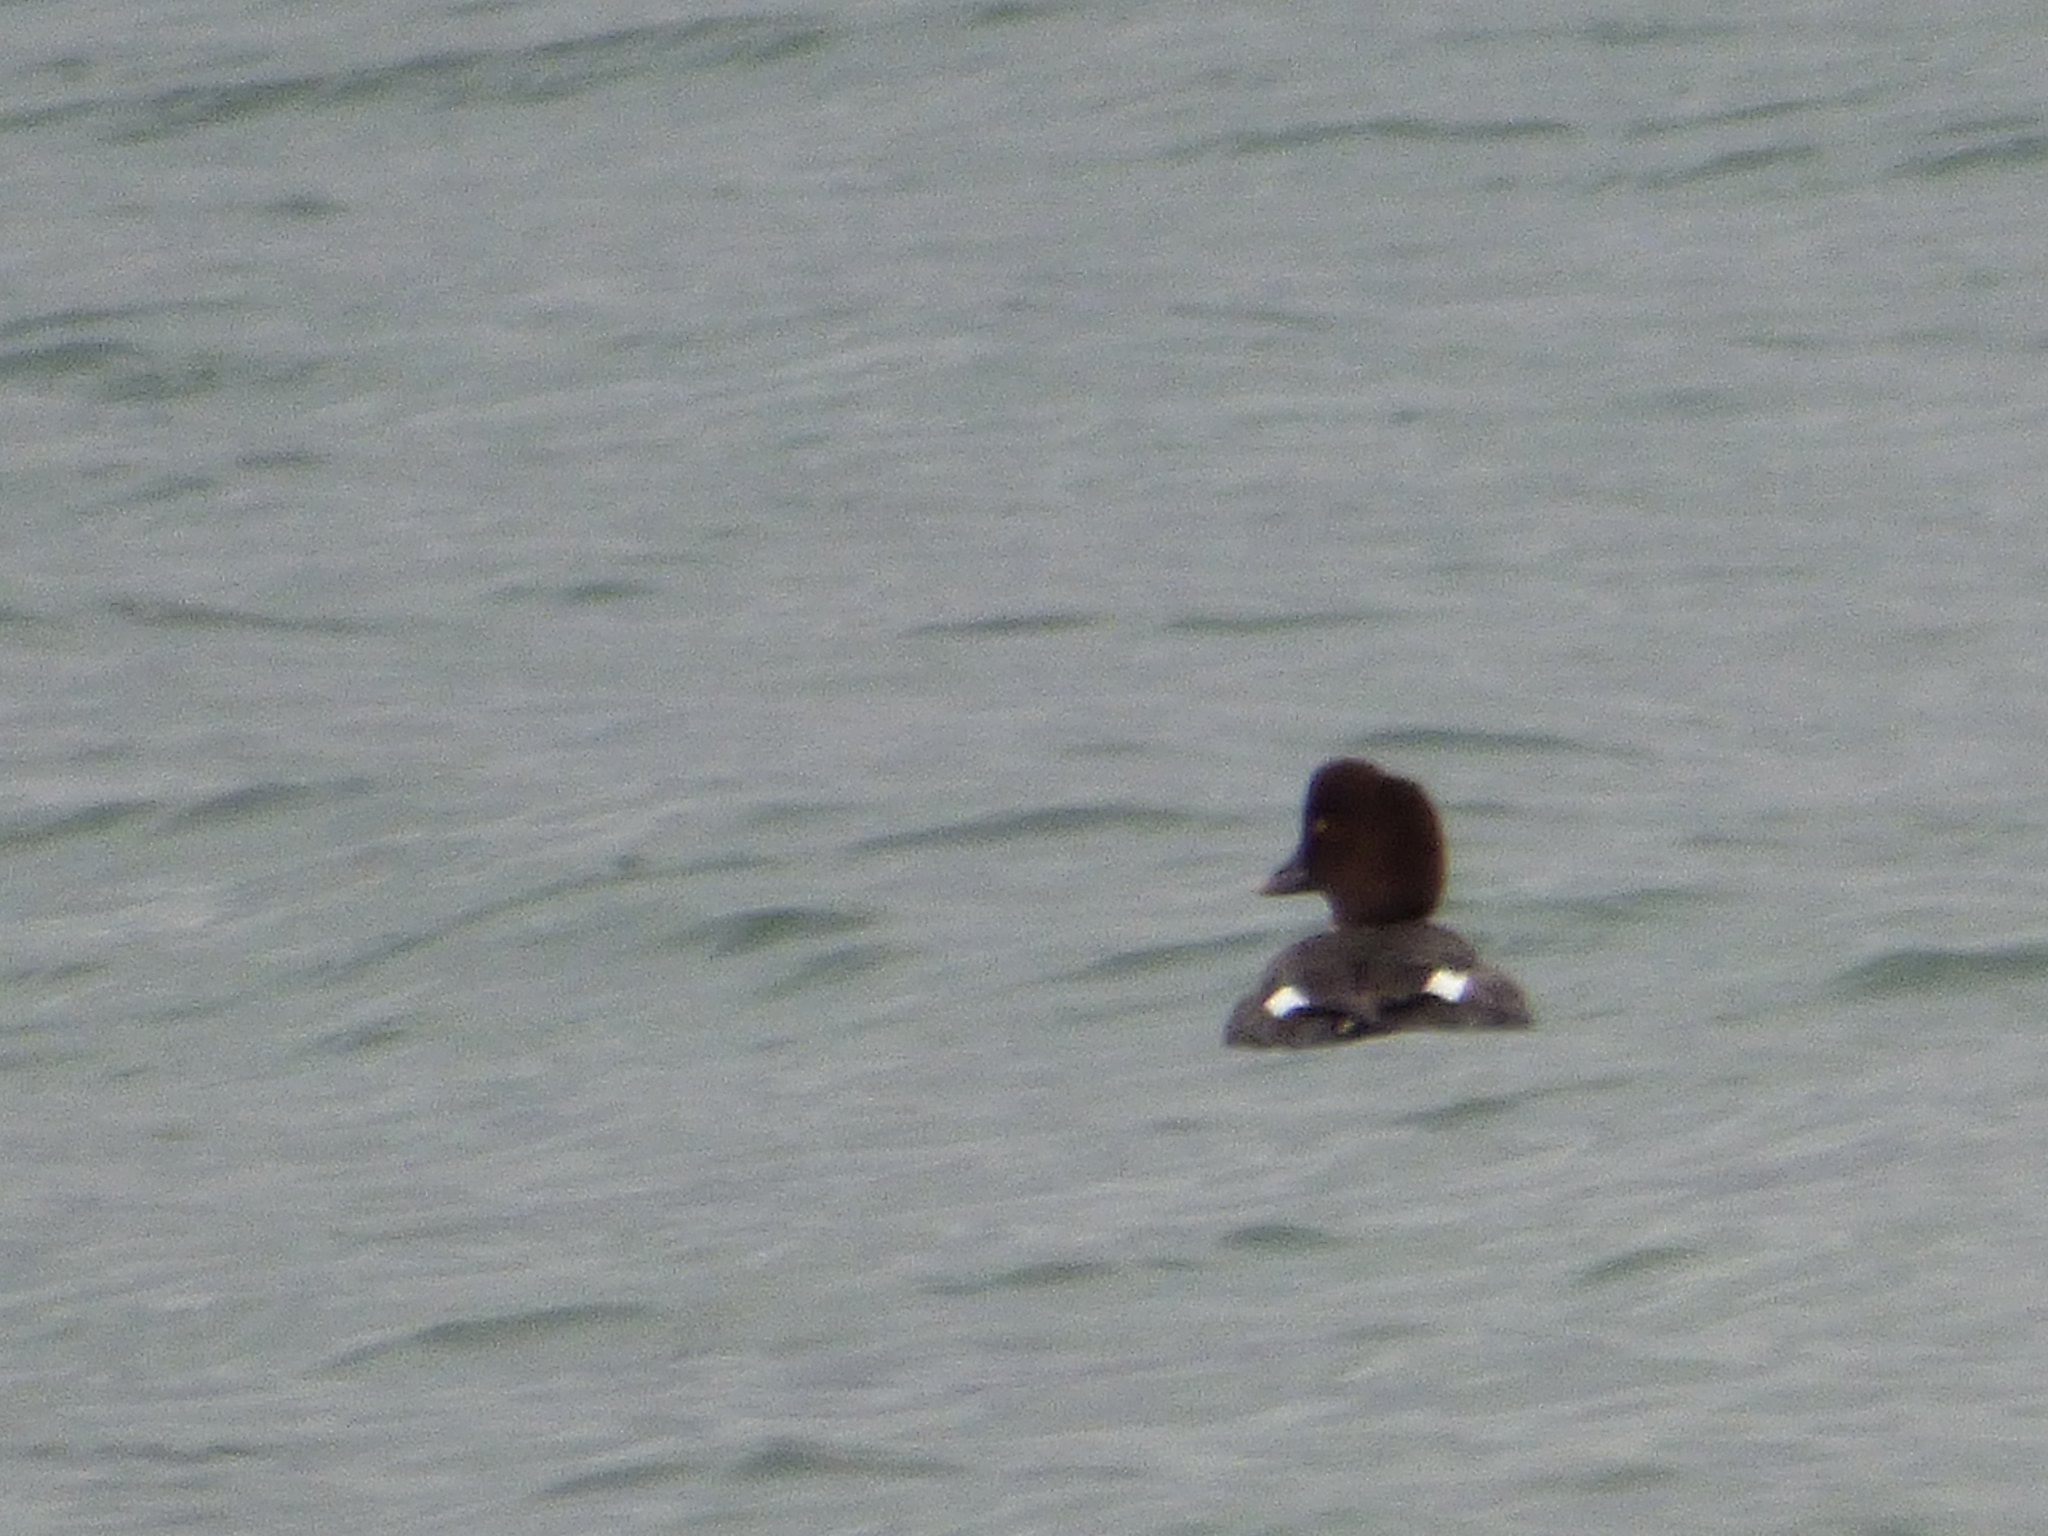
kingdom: Animalia
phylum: Chordata
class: Aves
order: Anseriformes
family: Anatidae
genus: Bucephala
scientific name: Bucephala clangula
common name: Common goldeneye
